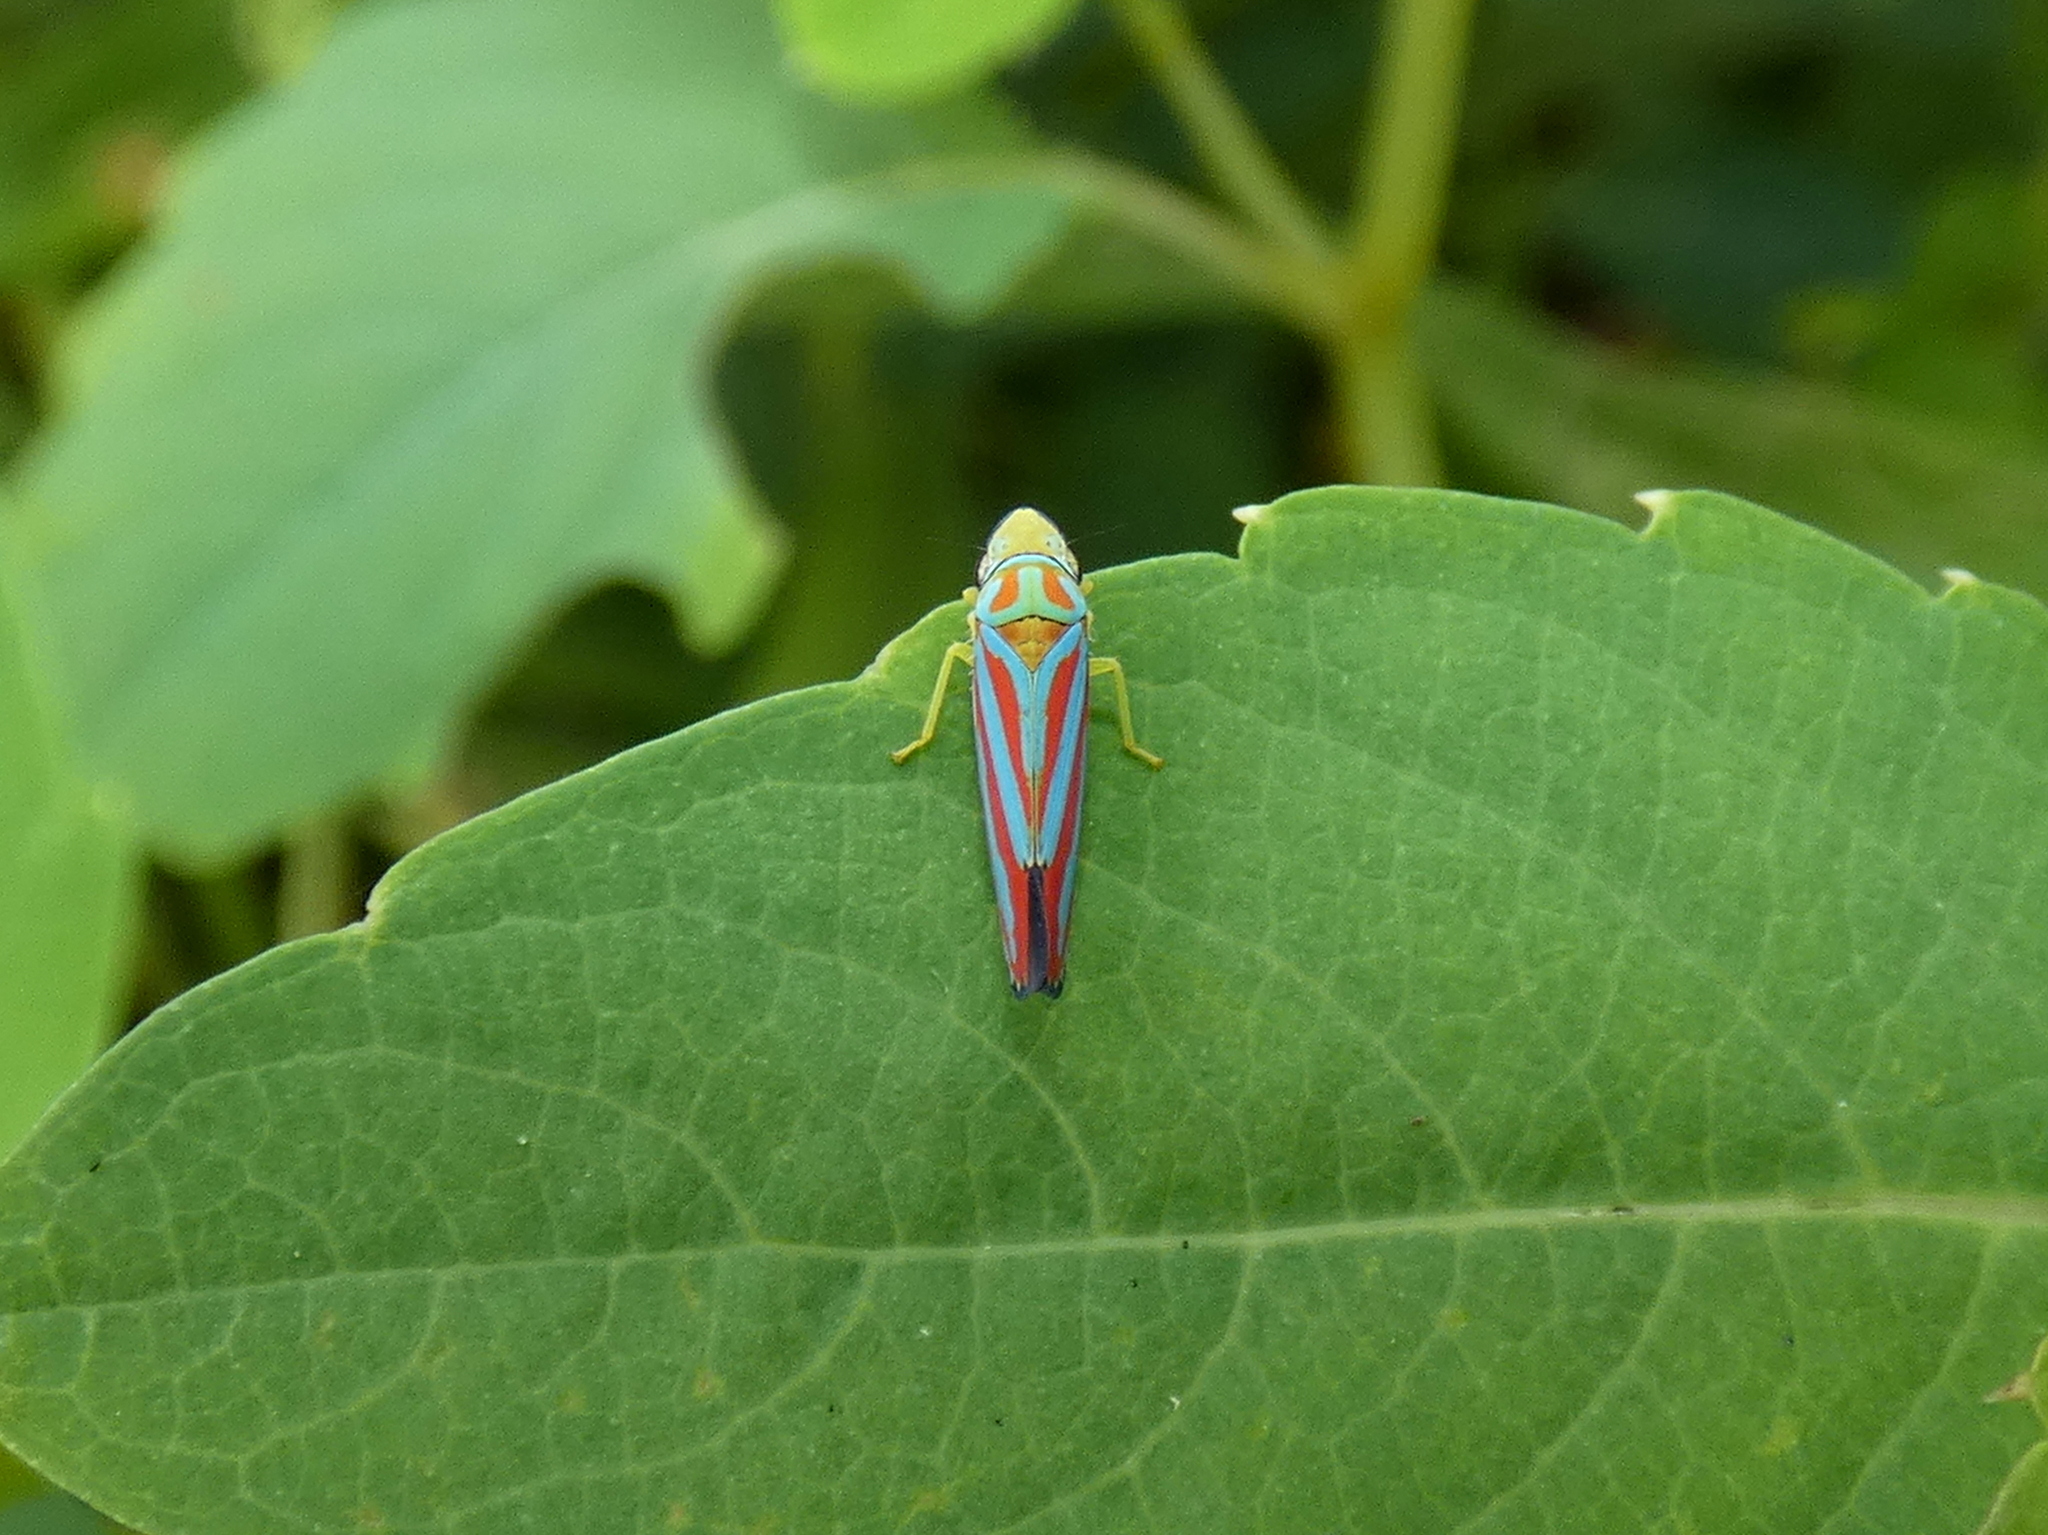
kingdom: Animalia
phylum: Arthropoda
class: Insecta
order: Hemiptera
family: Cicadellidae
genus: Graphocephala
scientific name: Graphocephala coccinea
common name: Candy-striped leafhopper
